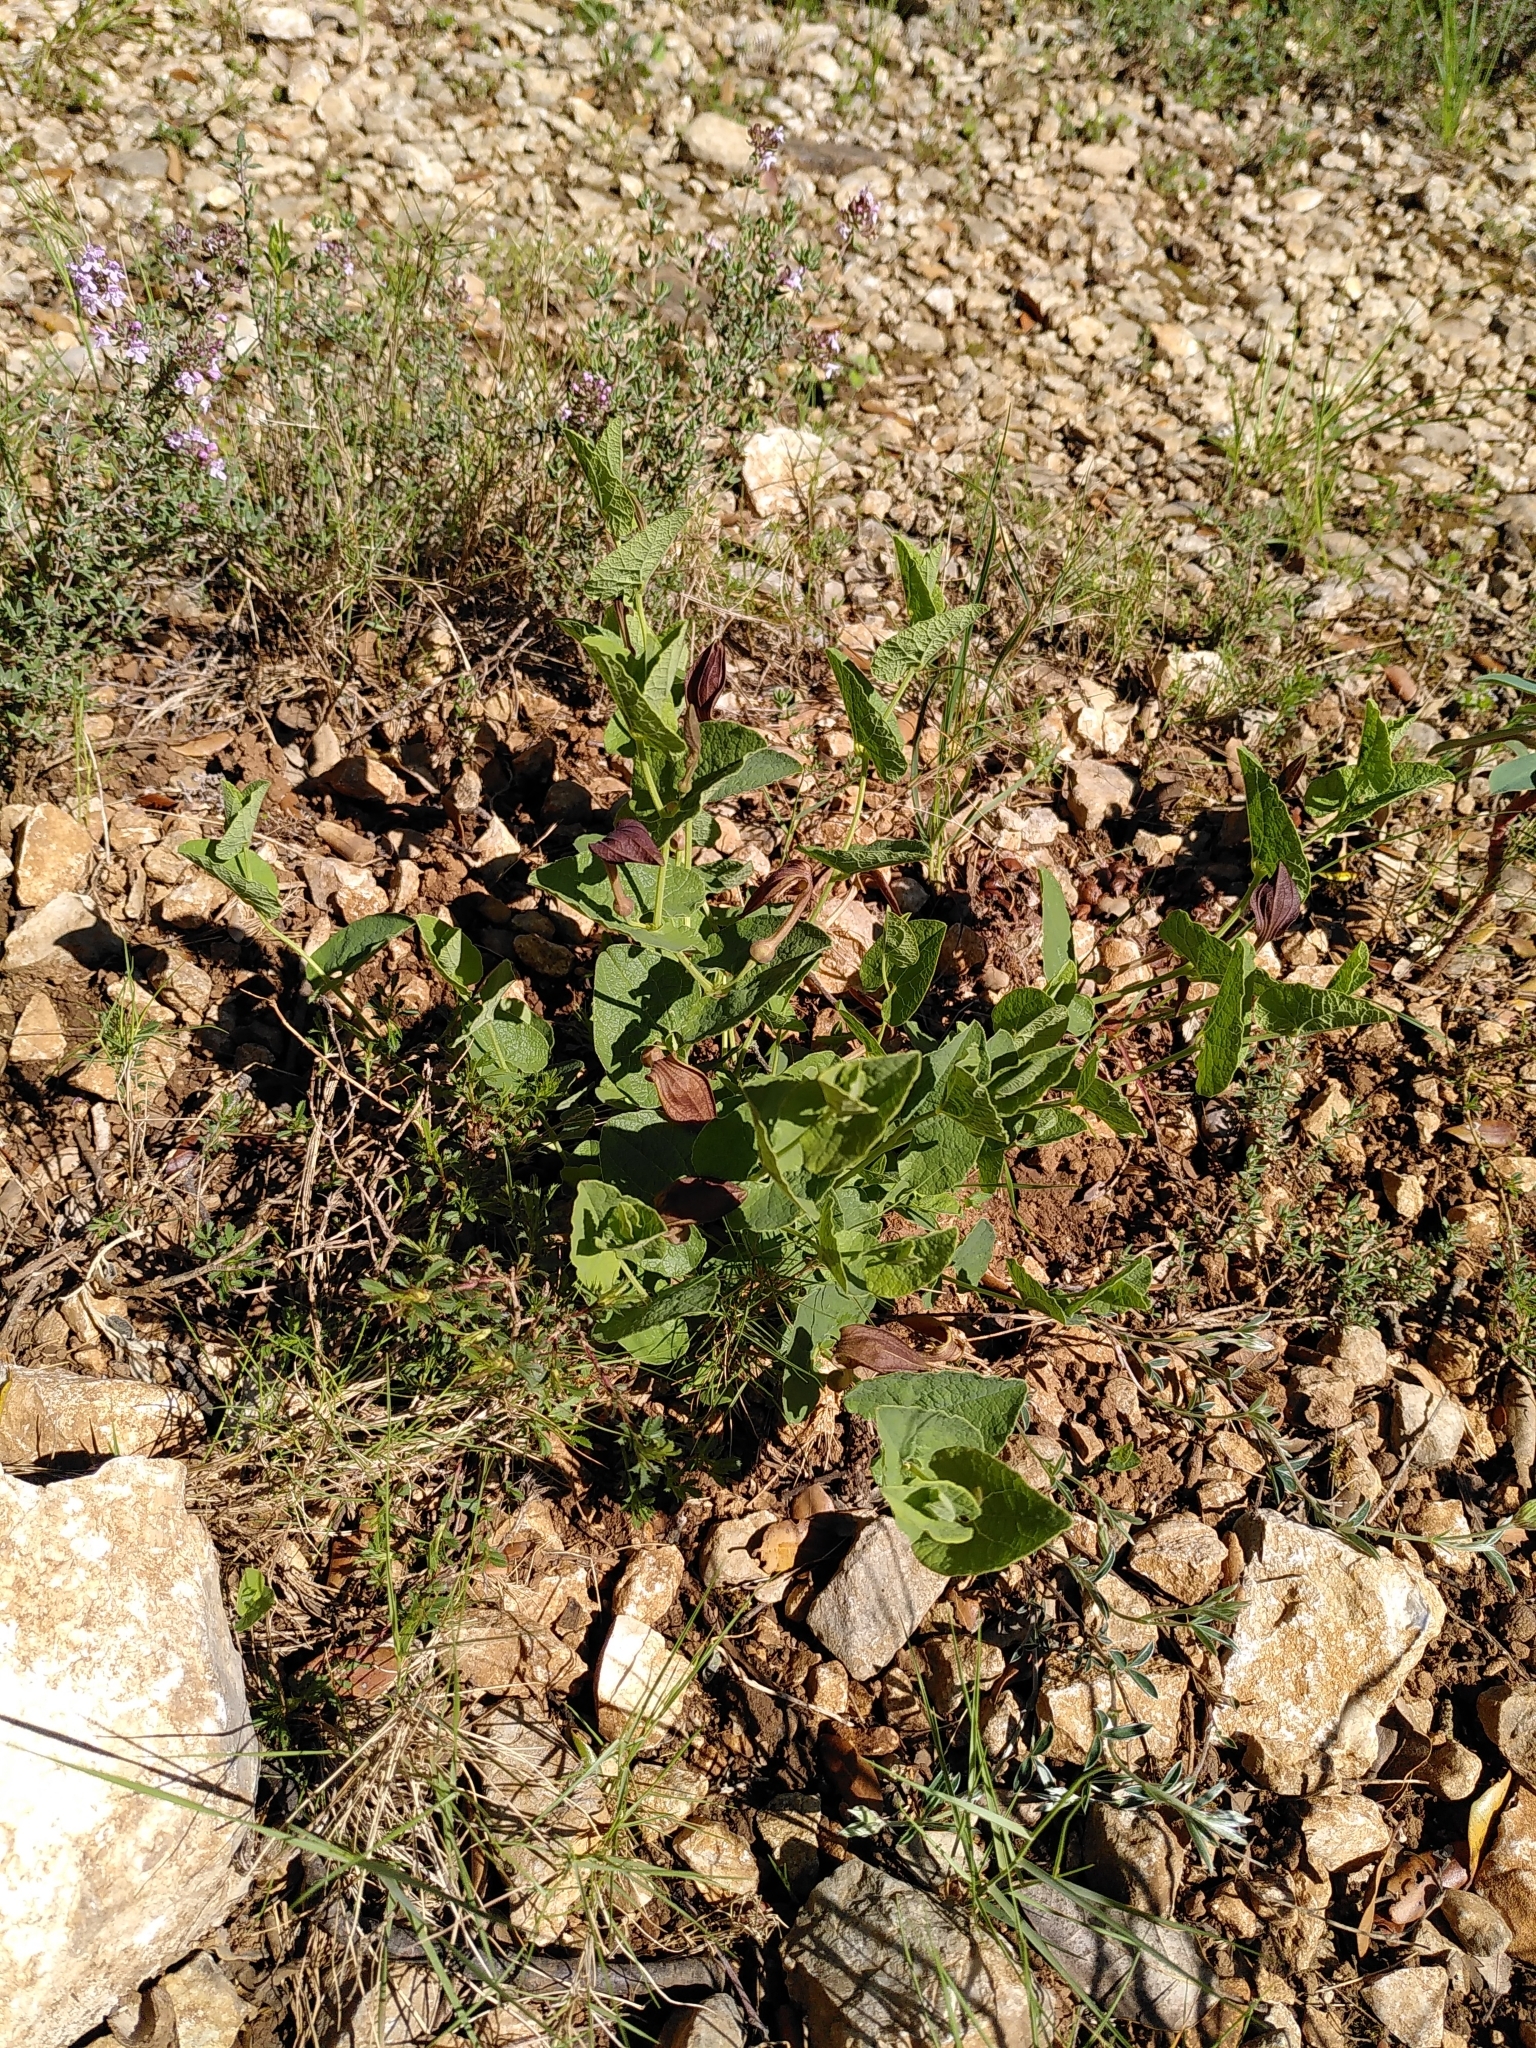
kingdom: Plantae
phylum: Tracheophyta
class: Magnoliopsida
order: Piperales
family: Aristolochiaceae
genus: Aristolochia
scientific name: Aristolochia pistolochia
